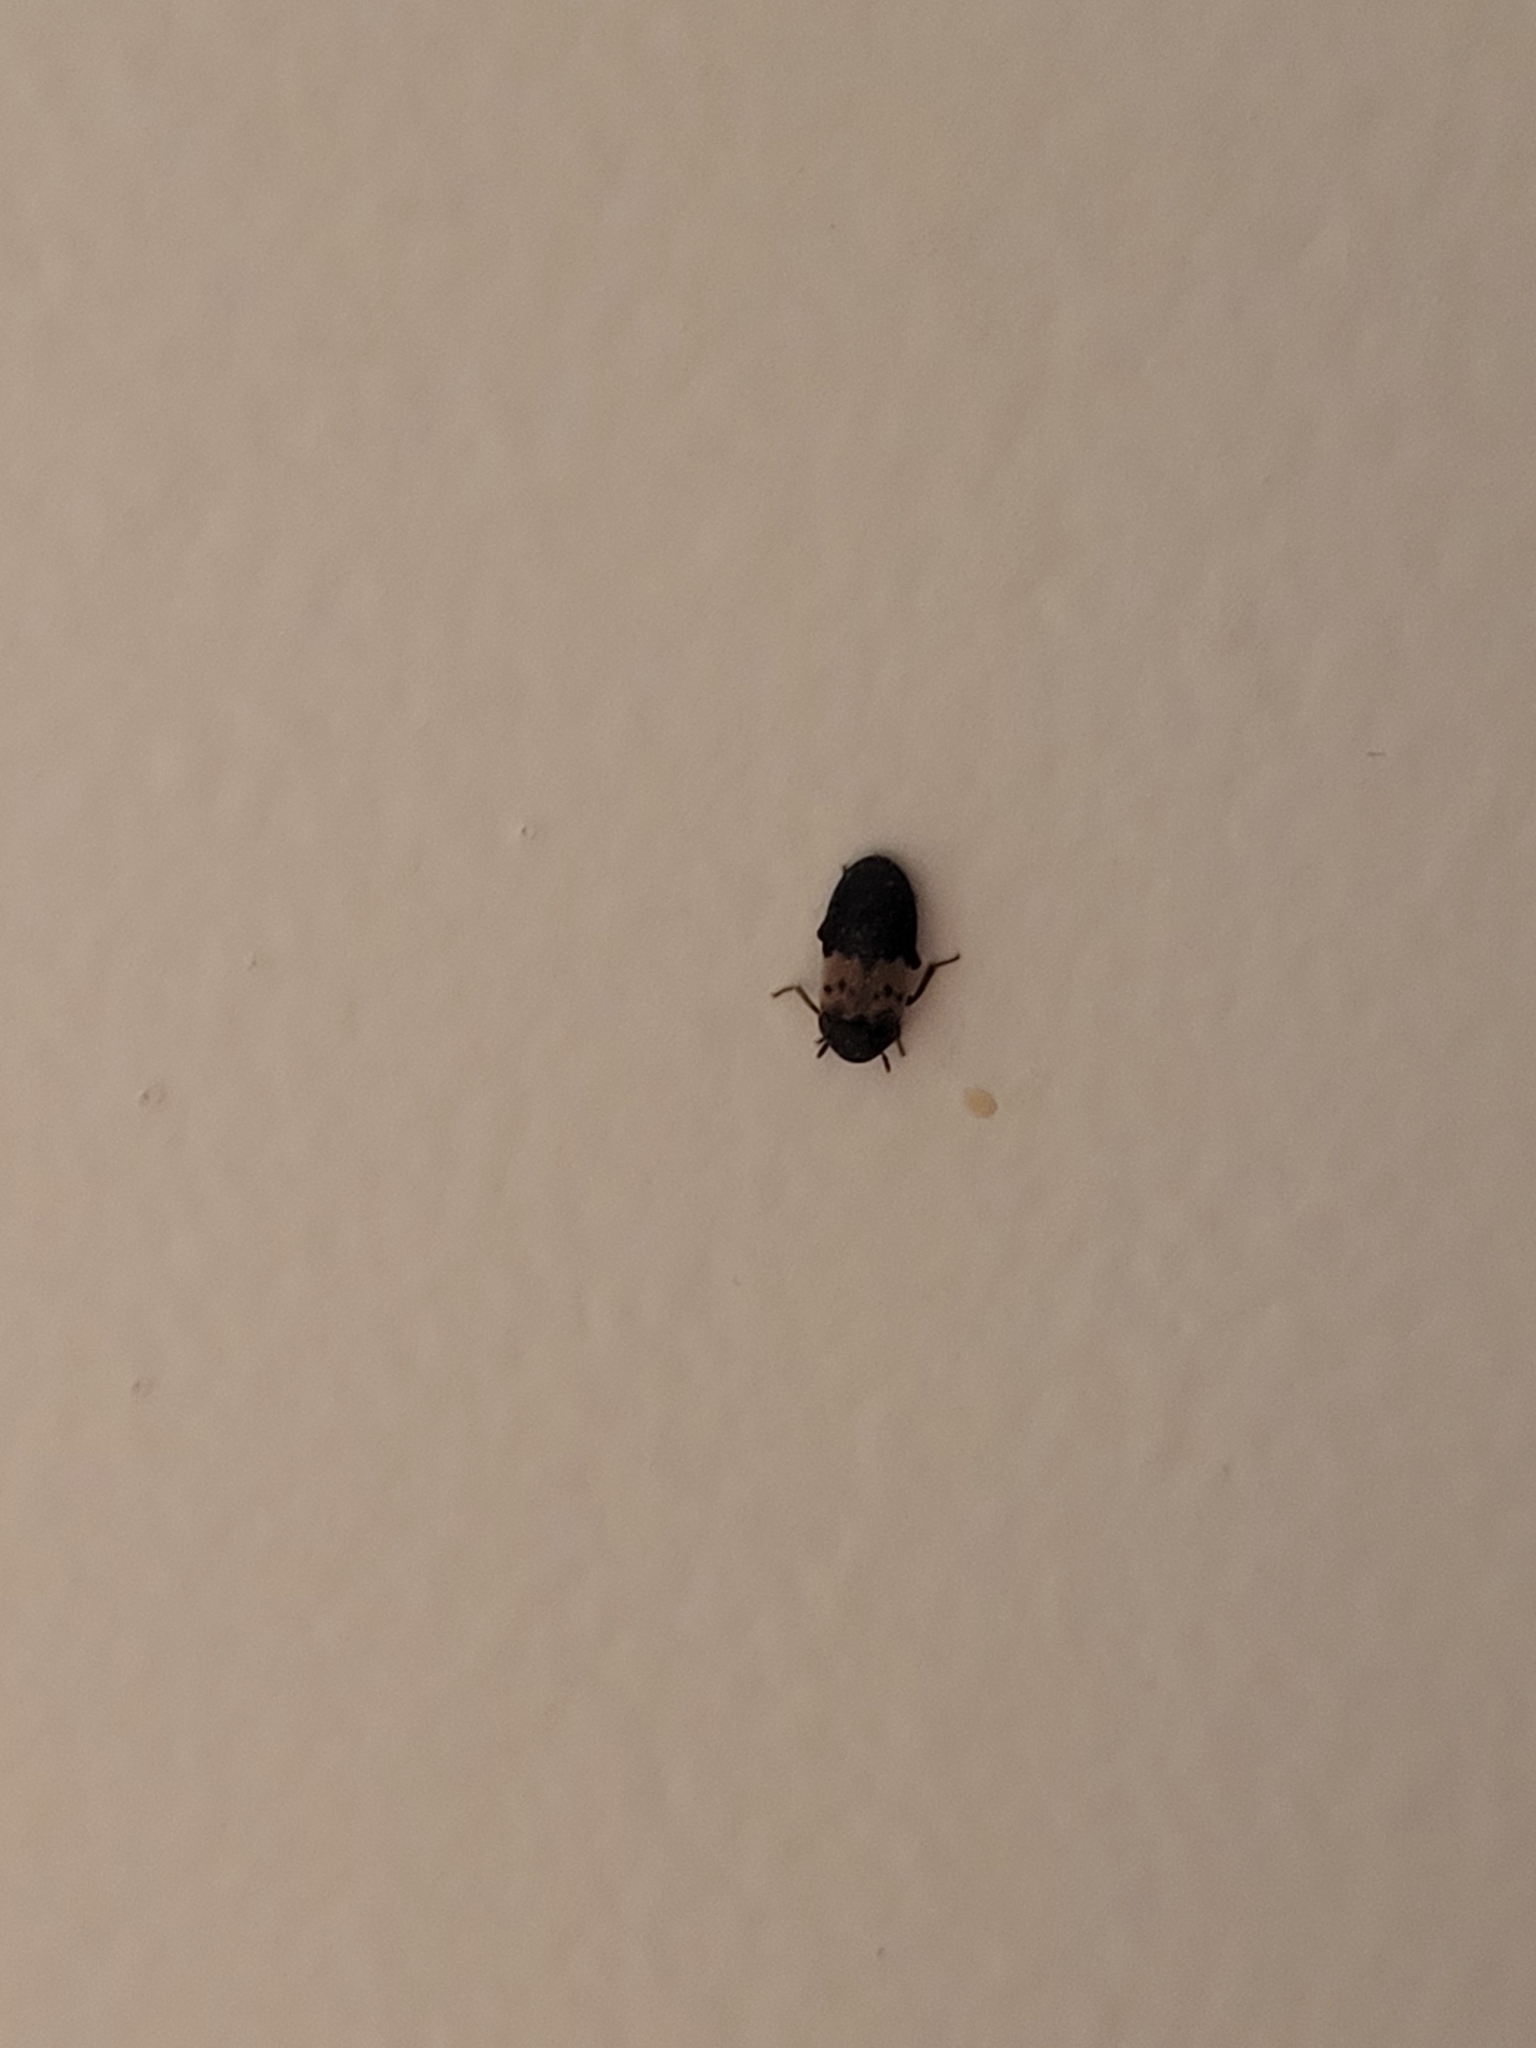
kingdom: Animalia
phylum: Arthropoda
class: Insecta
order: Coleoptera
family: Dermestidae
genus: Dermestes
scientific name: Dermestes lardarius
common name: Larder beetle
